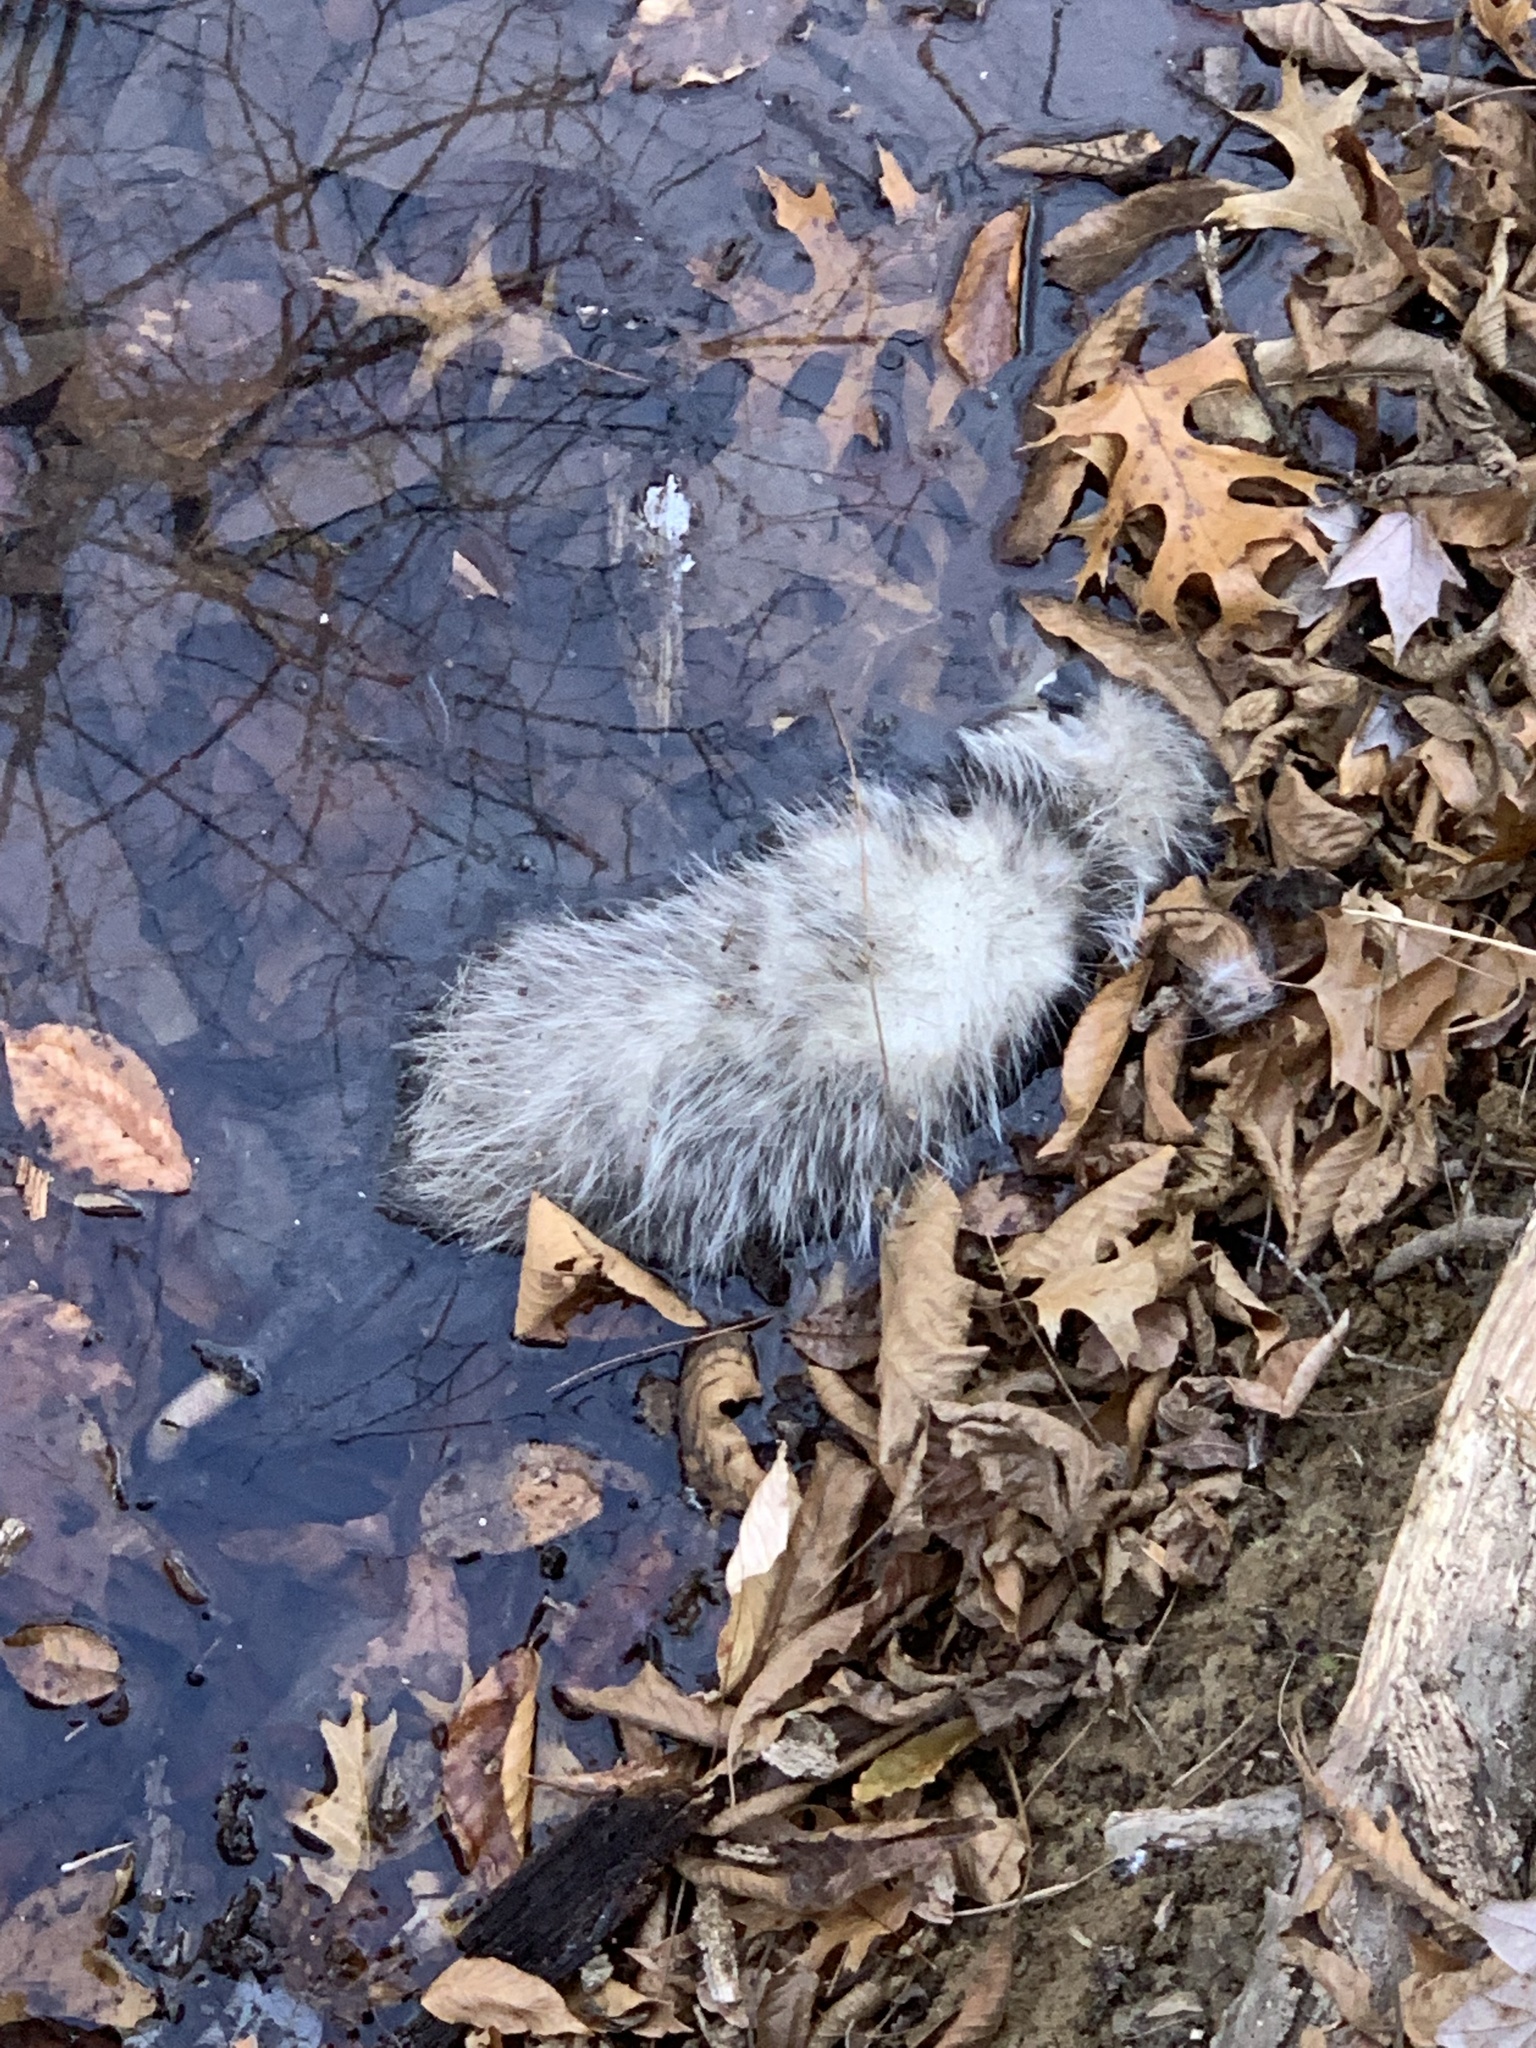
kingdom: Animalia
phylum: Chordata
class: Mammalia
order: Didelphimorphia
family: Didelphidae
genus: Didelphis
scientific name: Didelphis virginiana
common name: Virginia opossum
